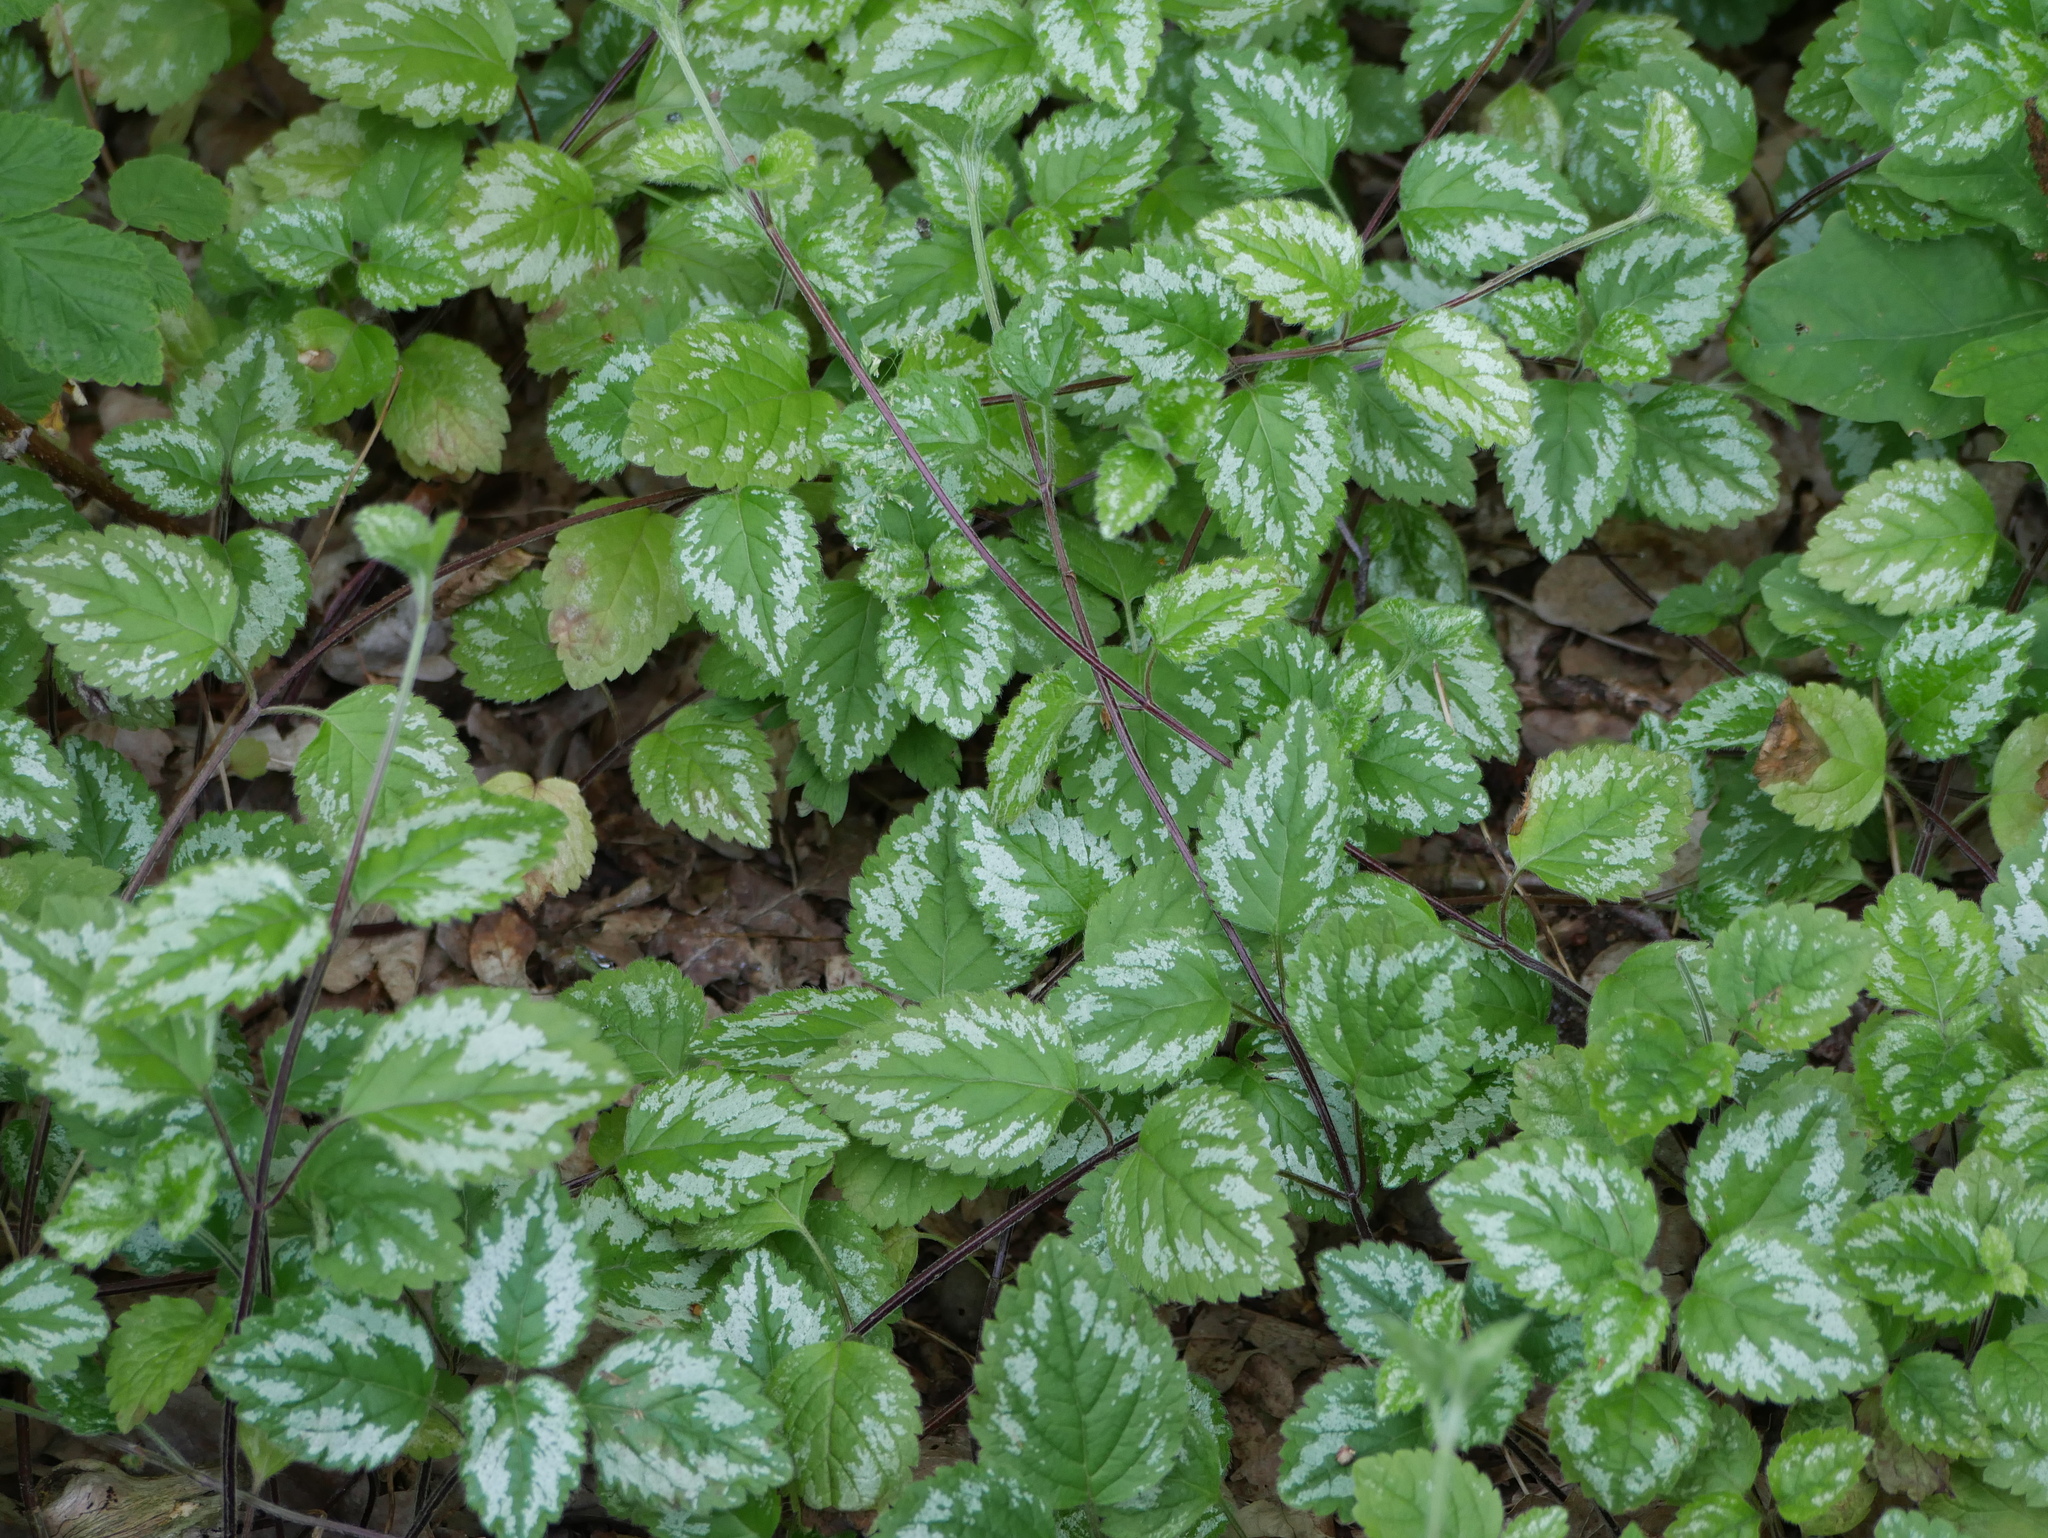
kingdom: Plantae
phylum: Tracheophyta
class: Magnoliopsida
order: Lamiales
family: Lamiaceae
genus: Lamium
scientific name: Lamium galeobdolon
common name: Yellow archangel
